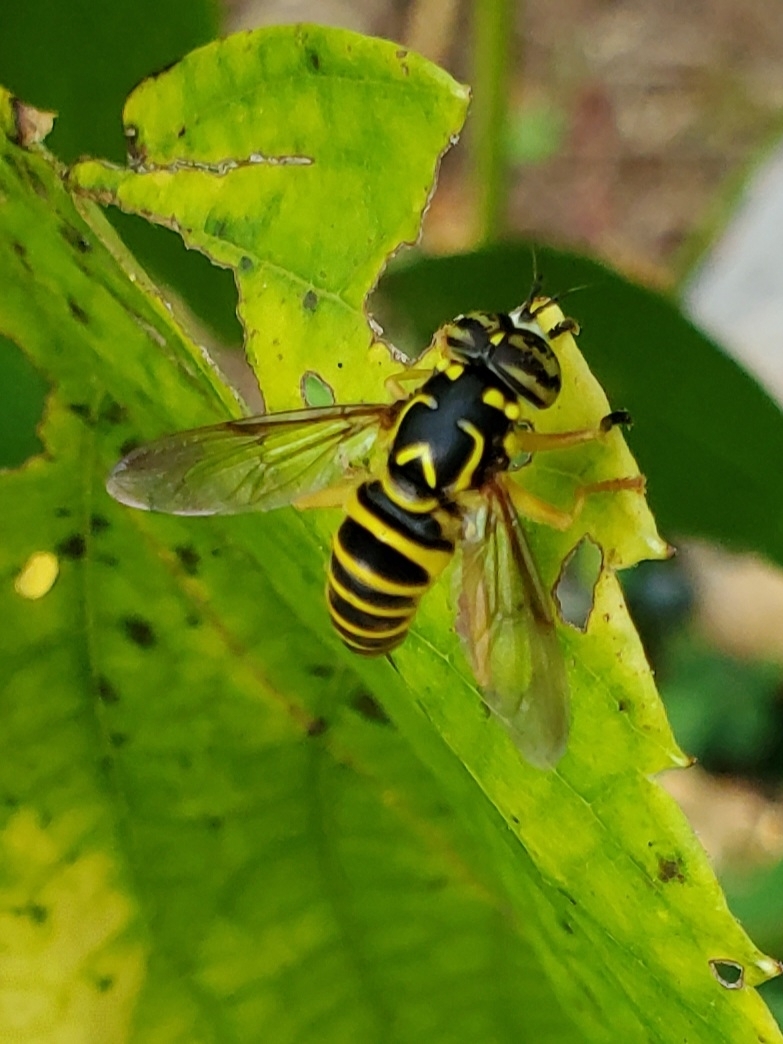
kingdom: Animalia
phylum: Arthropoda
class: Insecta
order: Diptera
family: Syrphidae
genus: Spilomyia
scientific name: Spilomyia longicornis
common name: Eastern hornet fly
